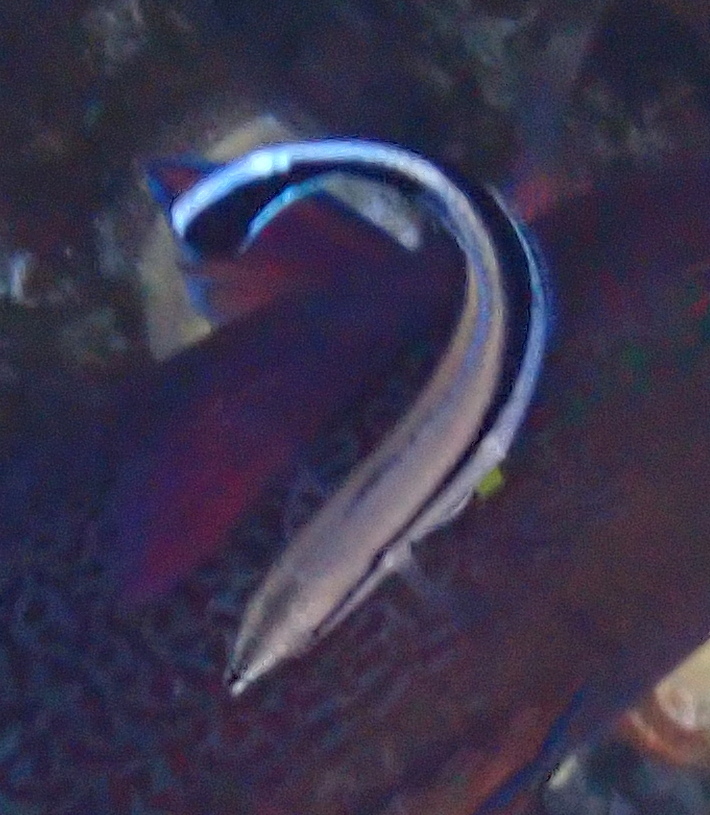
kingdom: Animalia
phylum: Chordata
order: Perciformes
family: Labridae
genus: Labroides
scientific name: Labroides dimidiatus
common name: Blue diesel wrasse
